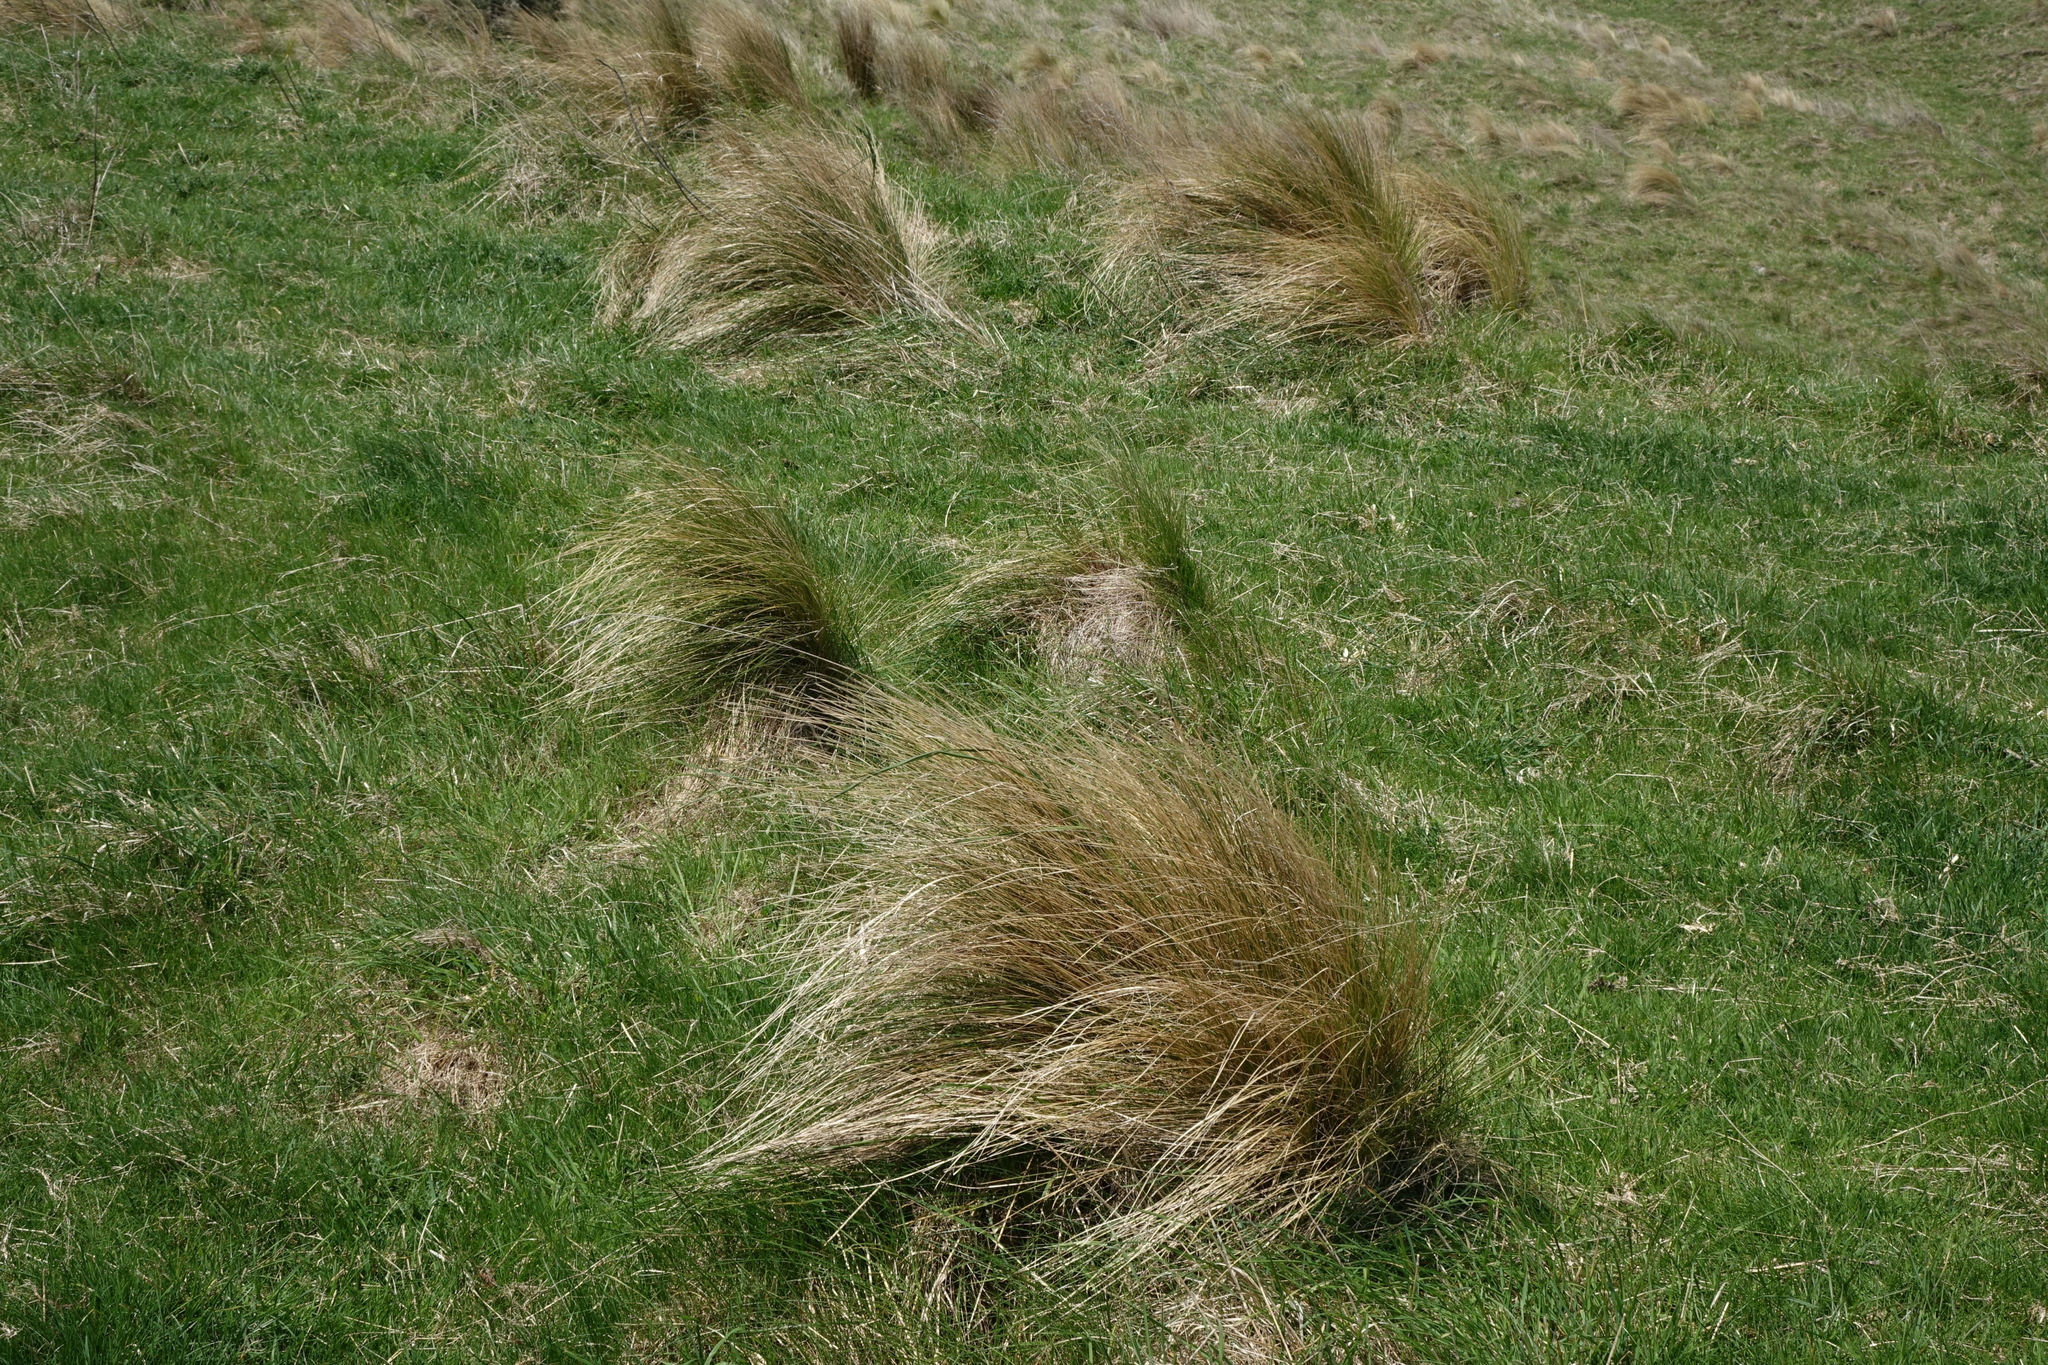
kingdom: Plantae
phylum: Tracheophyta
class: Liliopsida
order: Poales
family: Poaceae
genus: Poa
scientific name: Poa cita
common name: Silver tussock
